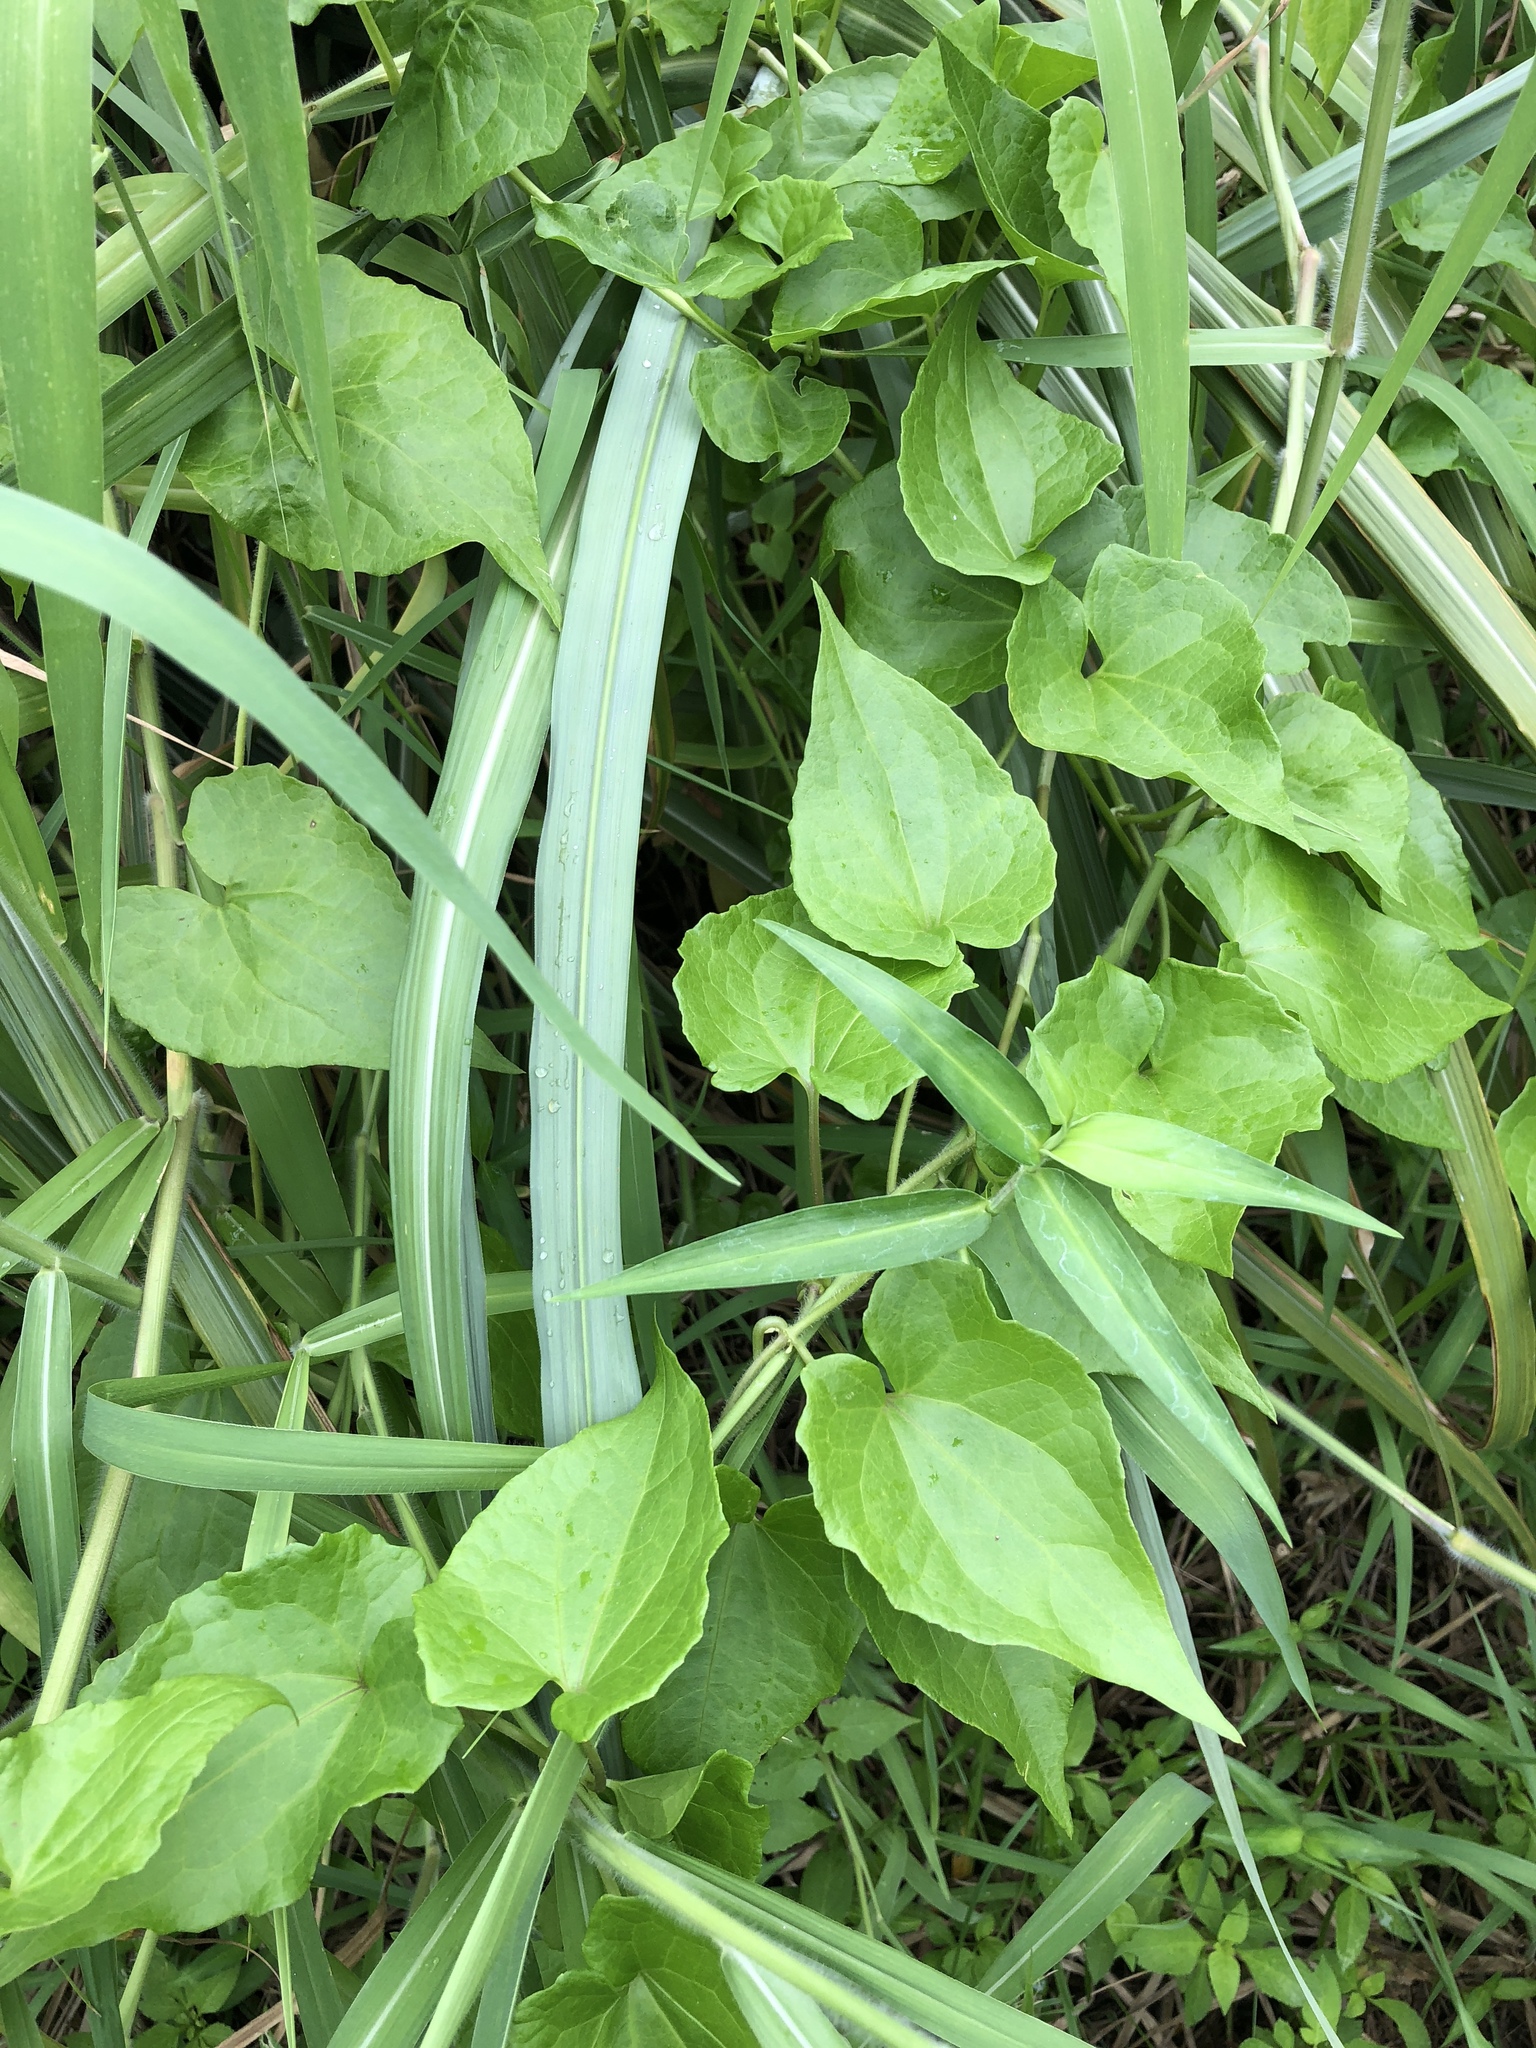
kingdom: Plantae
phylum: Tracheophyta
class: Magnoliopsida
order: Asterales
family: Asteraceae
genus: Mikania
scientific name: Mikania micrantha
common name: Mile-a-minute
